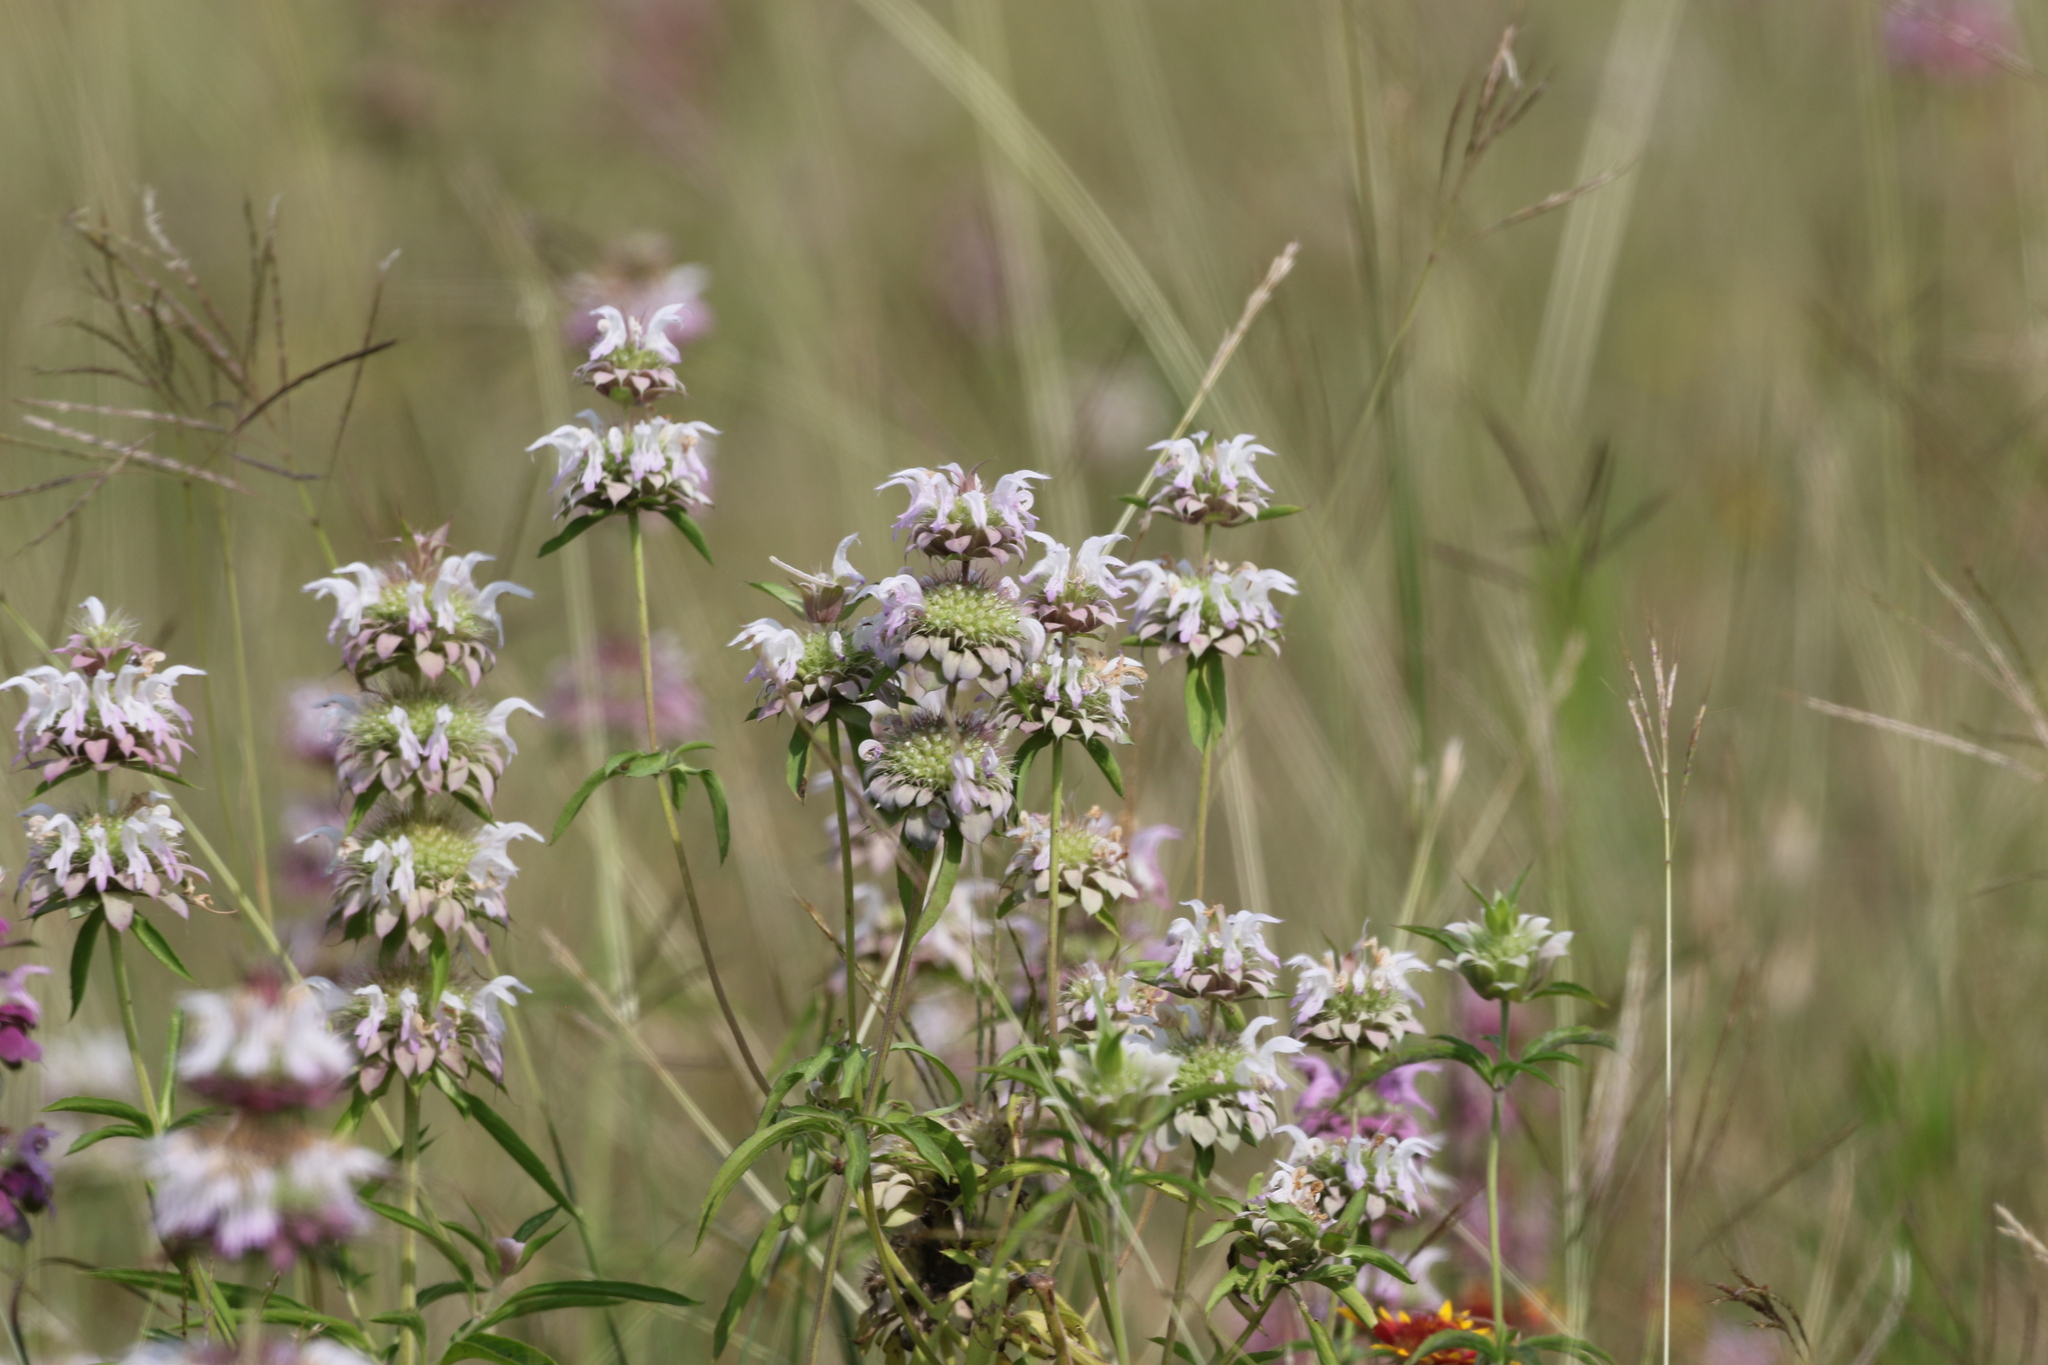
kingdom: Plantae
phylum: Tracheophyta
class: Magnoliopsida
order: Lamiales
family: Lamiaceae
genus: Monarda
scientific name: Monarda citriodora
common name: Lemon beebalm
